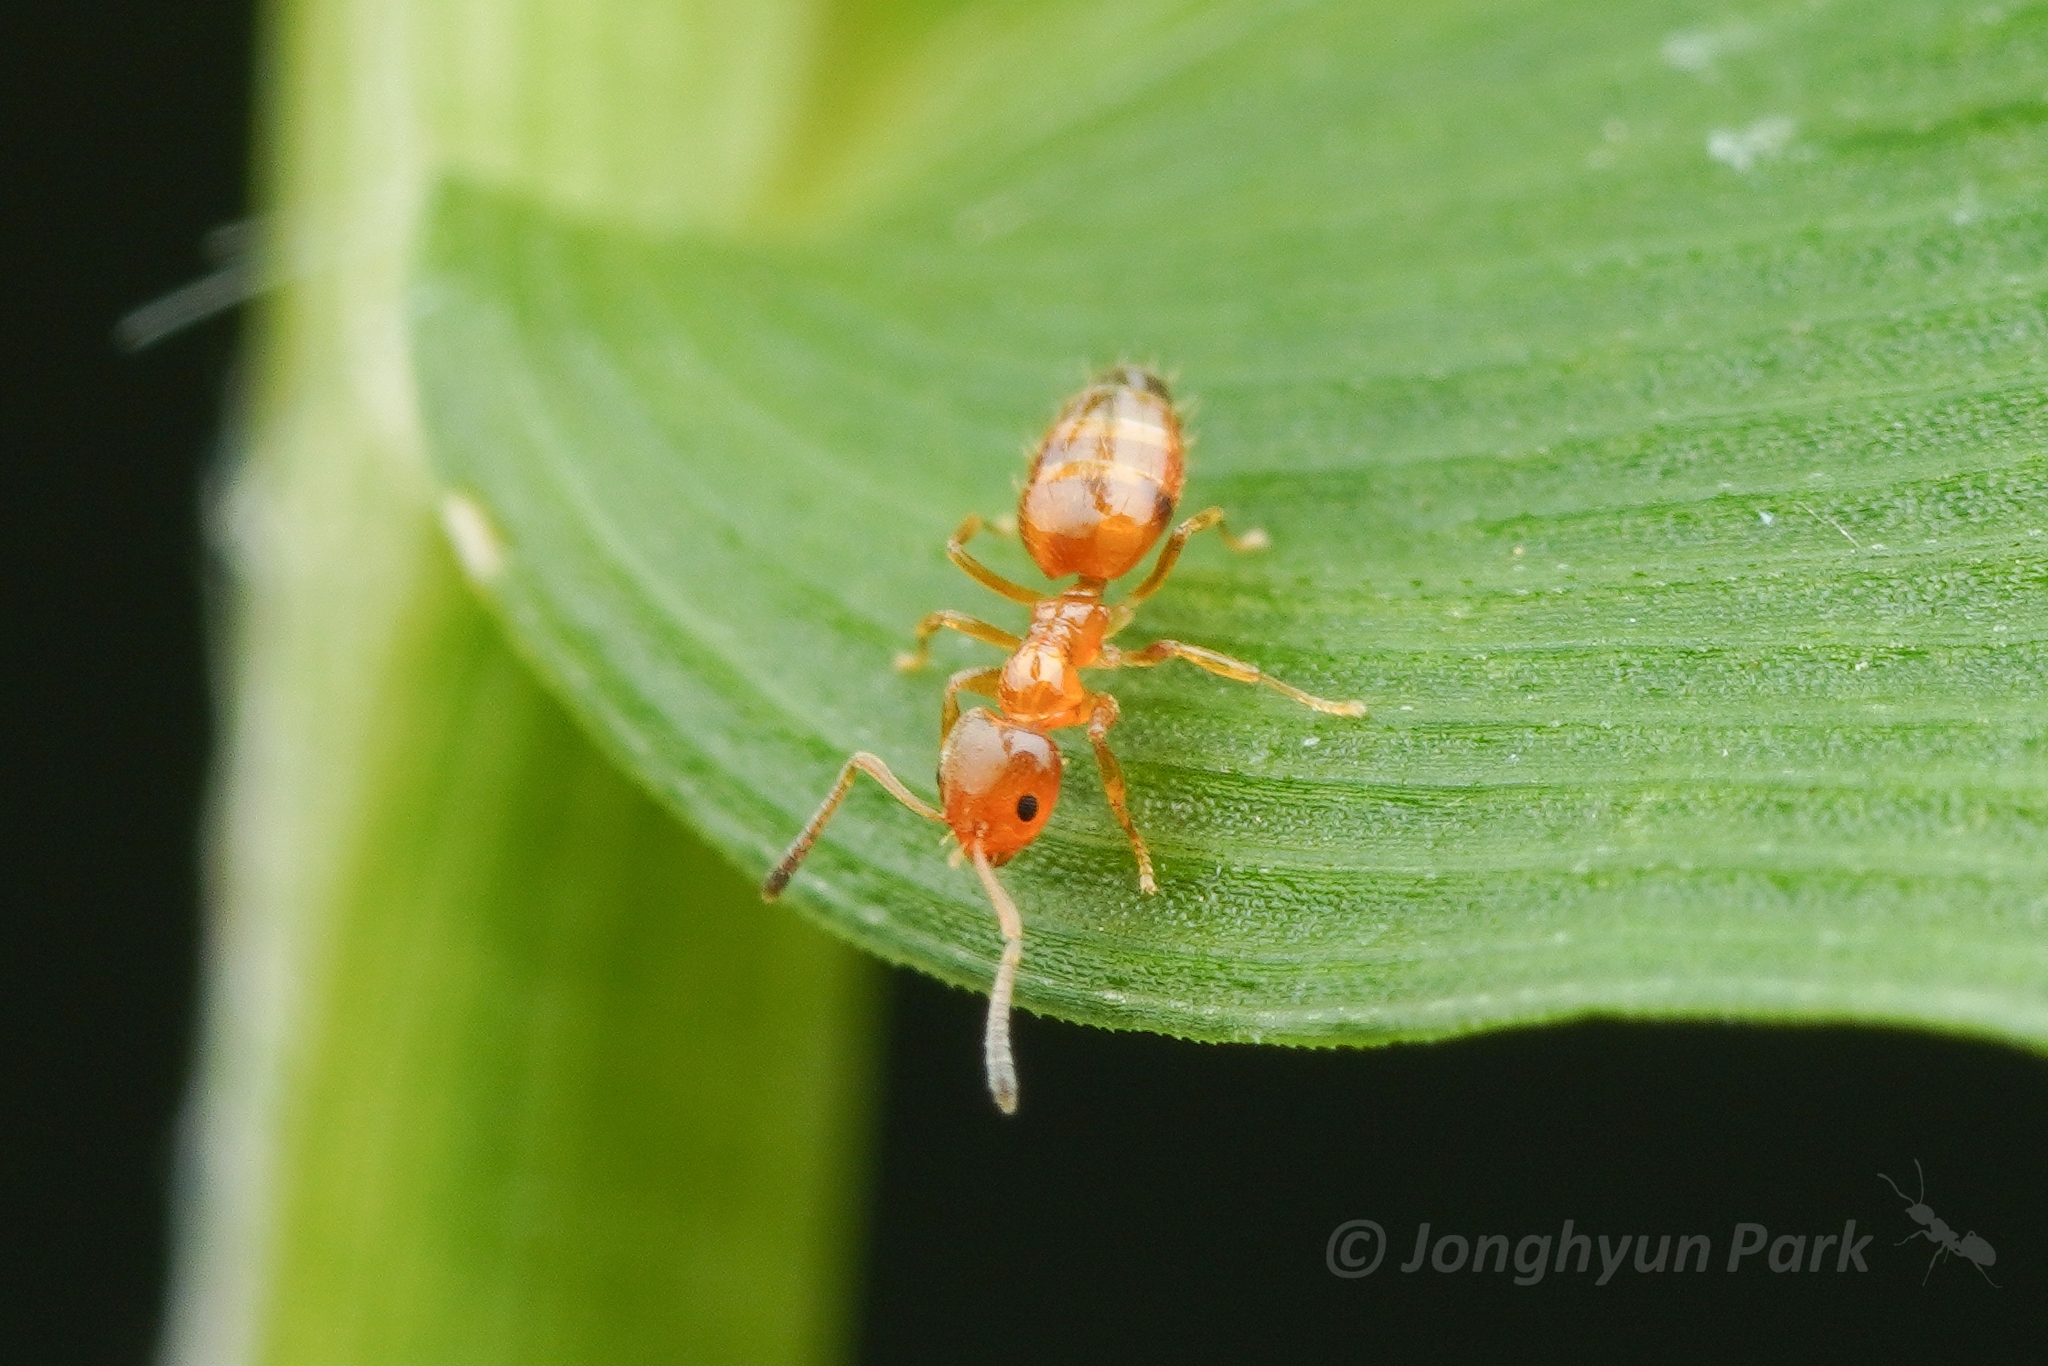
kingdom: Animalia
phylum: Arthropoda
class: Insecta
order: Hymenoptera
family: Formicidae
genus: Plagiolepis
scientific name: Plagiolepis flavescens
